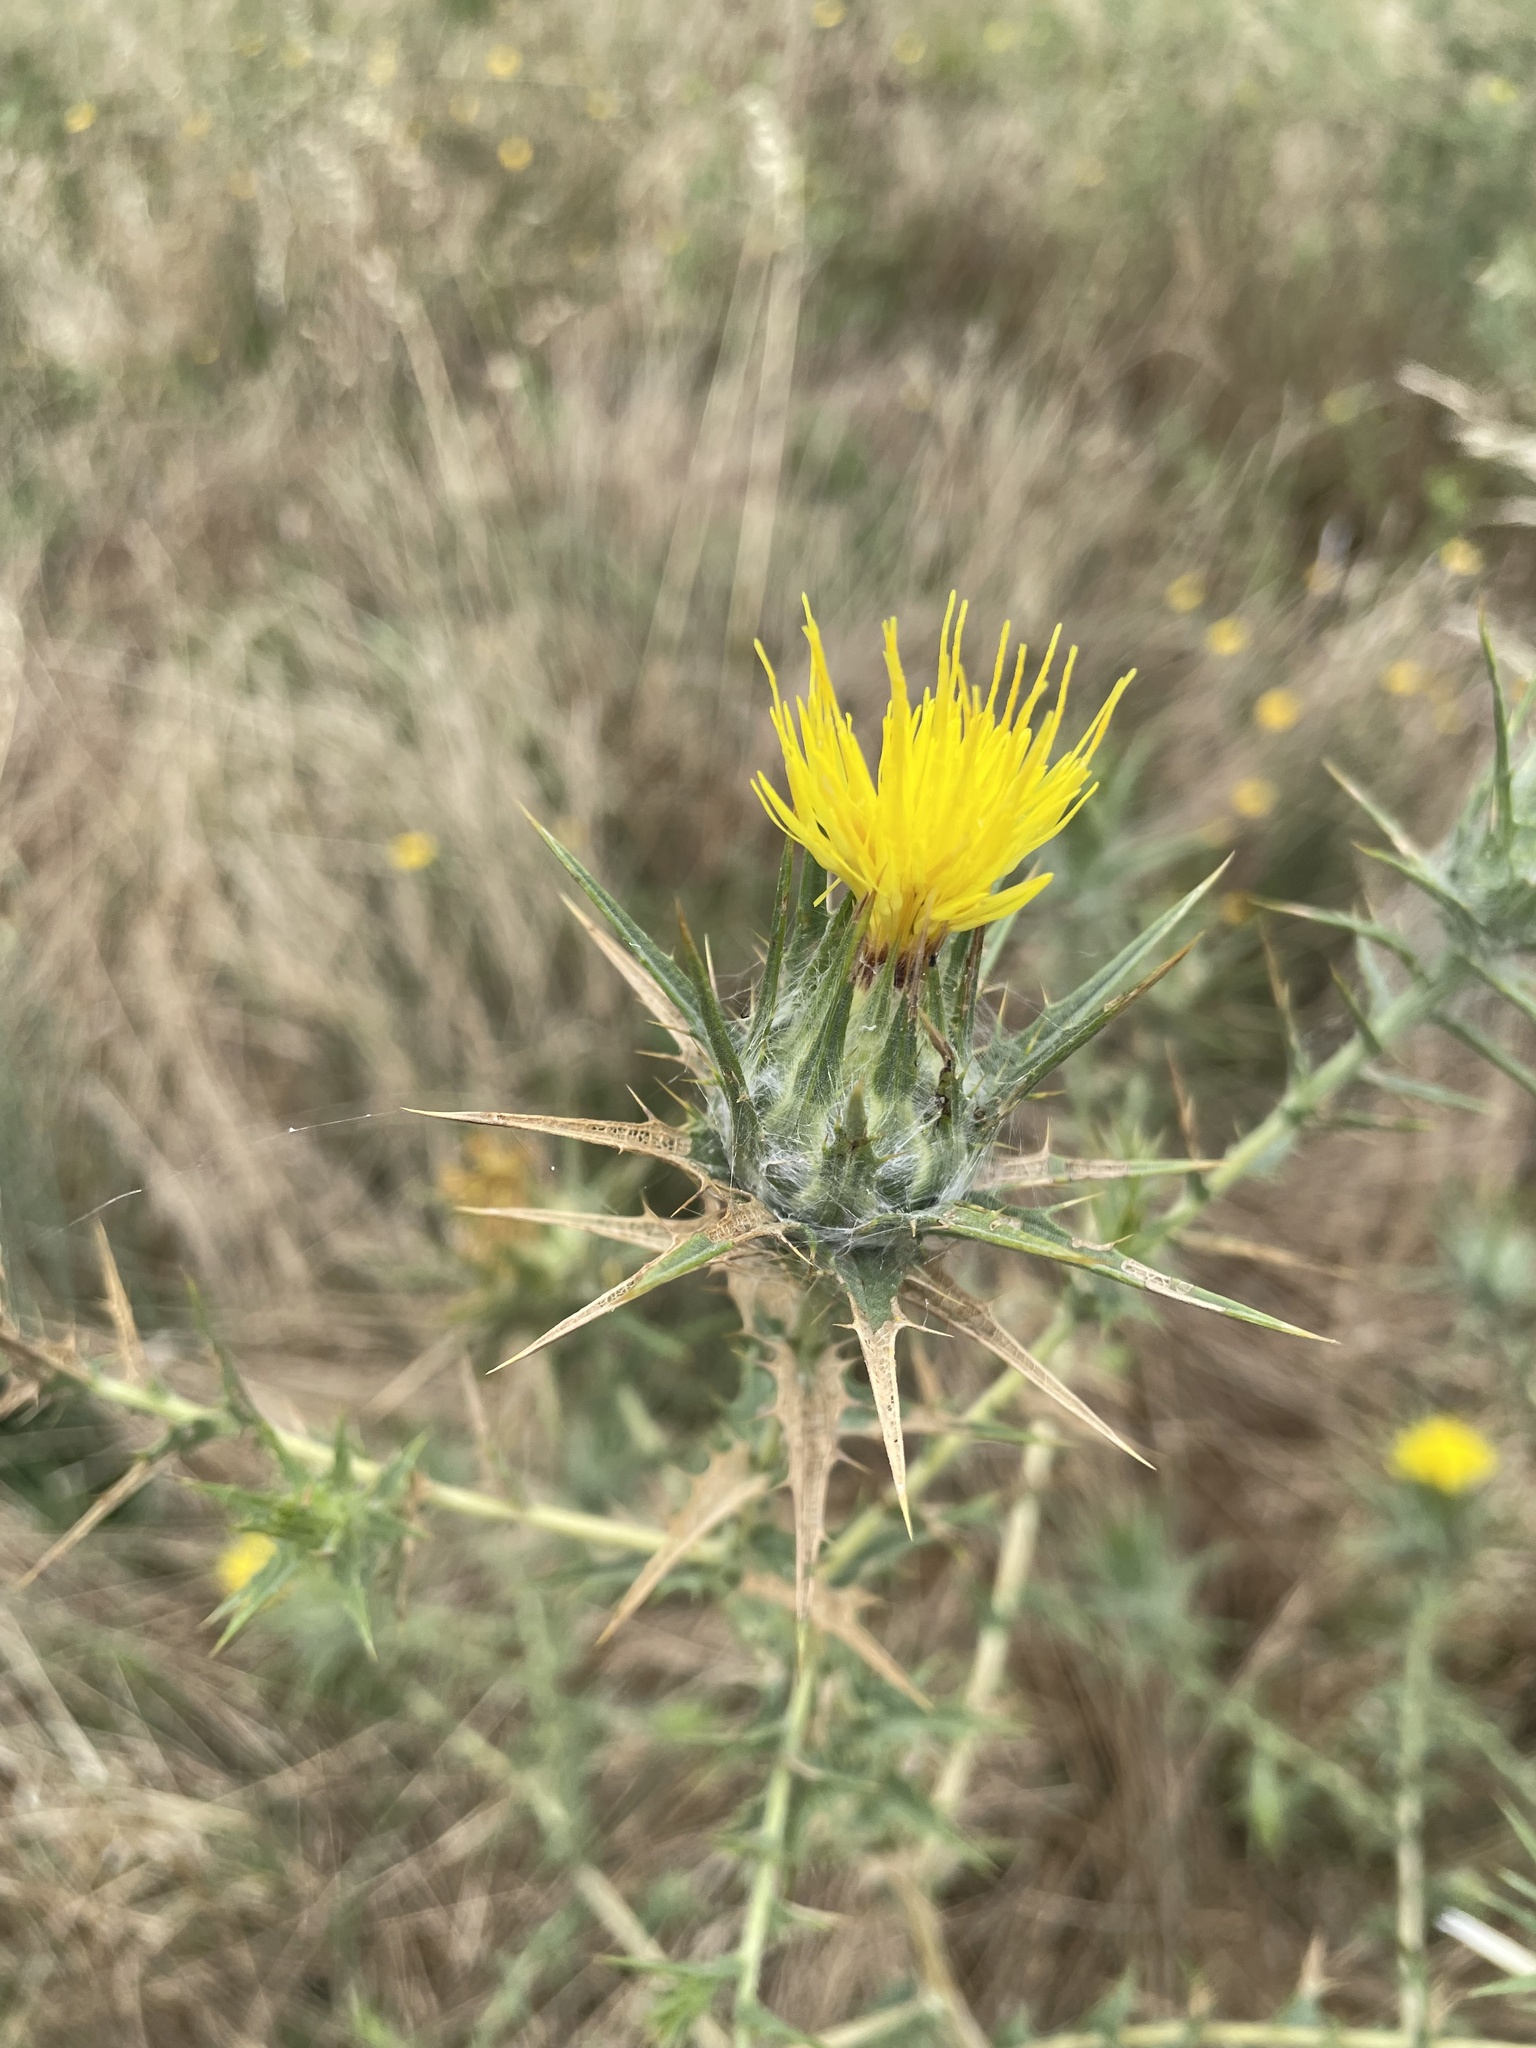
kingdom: Plantae
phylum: Tracheophyta
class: Magnoliopsida
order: Asterales
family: Asteraceae
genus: Carthamus
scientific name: Carthamus lanatus
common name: Downy safflower
